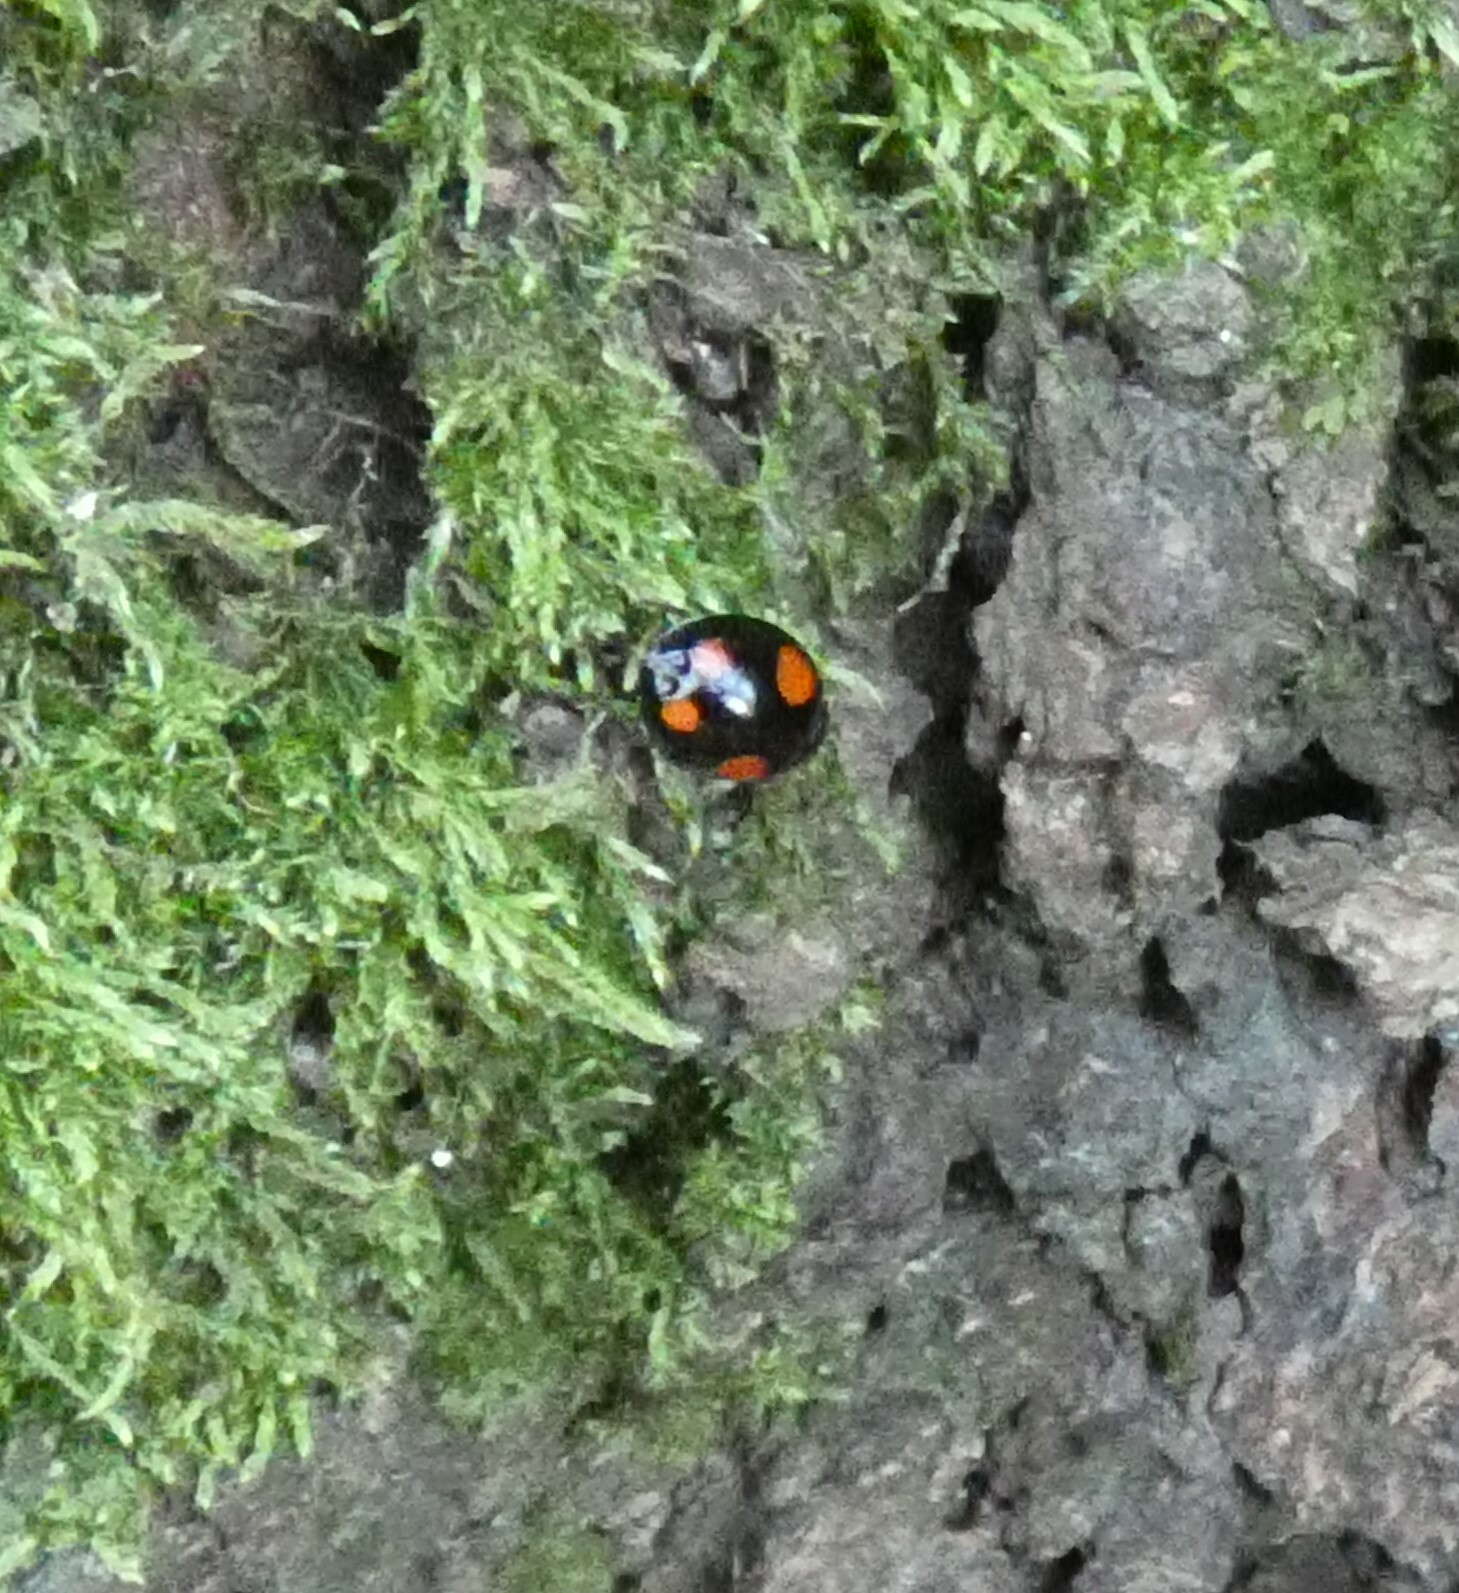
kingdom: Animalia
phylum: Arthropoda
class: Insecta
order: Coleoptera
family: Coccinellidae
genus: Harmonia
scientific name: Harmonia axyridis
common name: Harlequin ladybird
